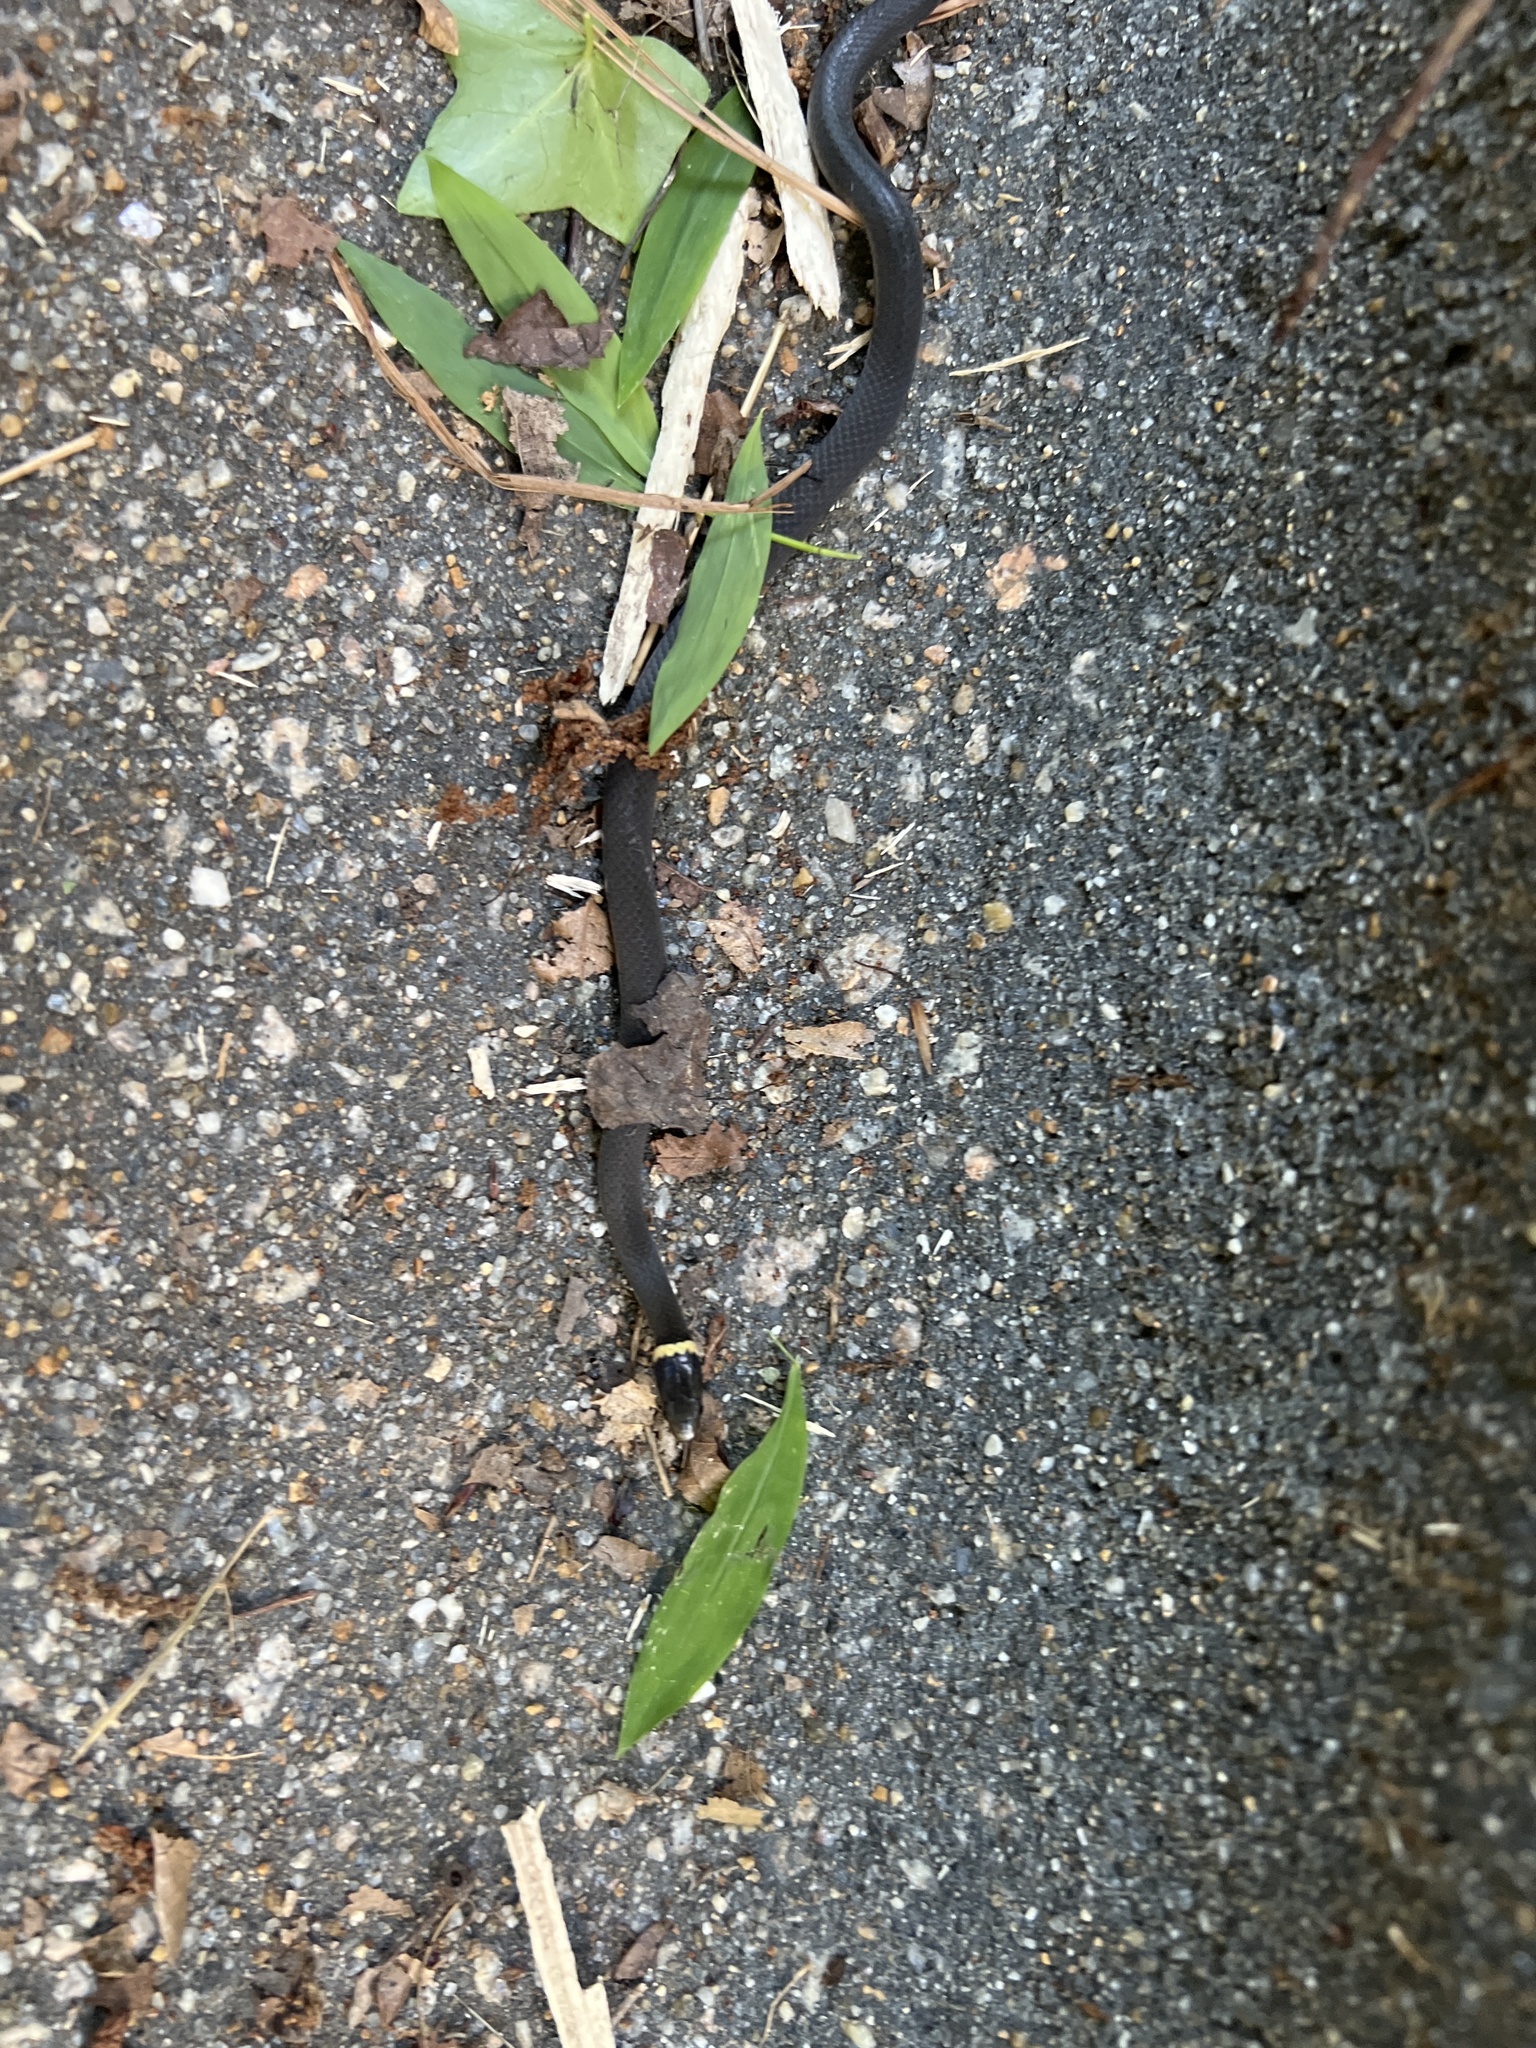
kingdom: Animalia
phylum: Chordata
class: Squamata
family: Colubridae
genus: Diadophis
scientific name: Diadophis punctatus
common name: Ringneck snake
